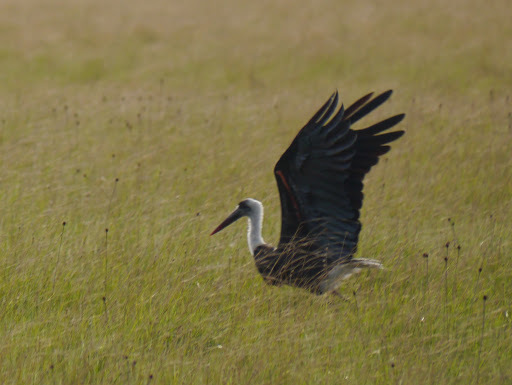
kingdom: Animalia
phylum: Chordata
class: Aves
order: Ciconiiformes
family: Ciconiidae
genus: Ciconia
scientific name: Ciconia microscelis
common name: African woollyneck
